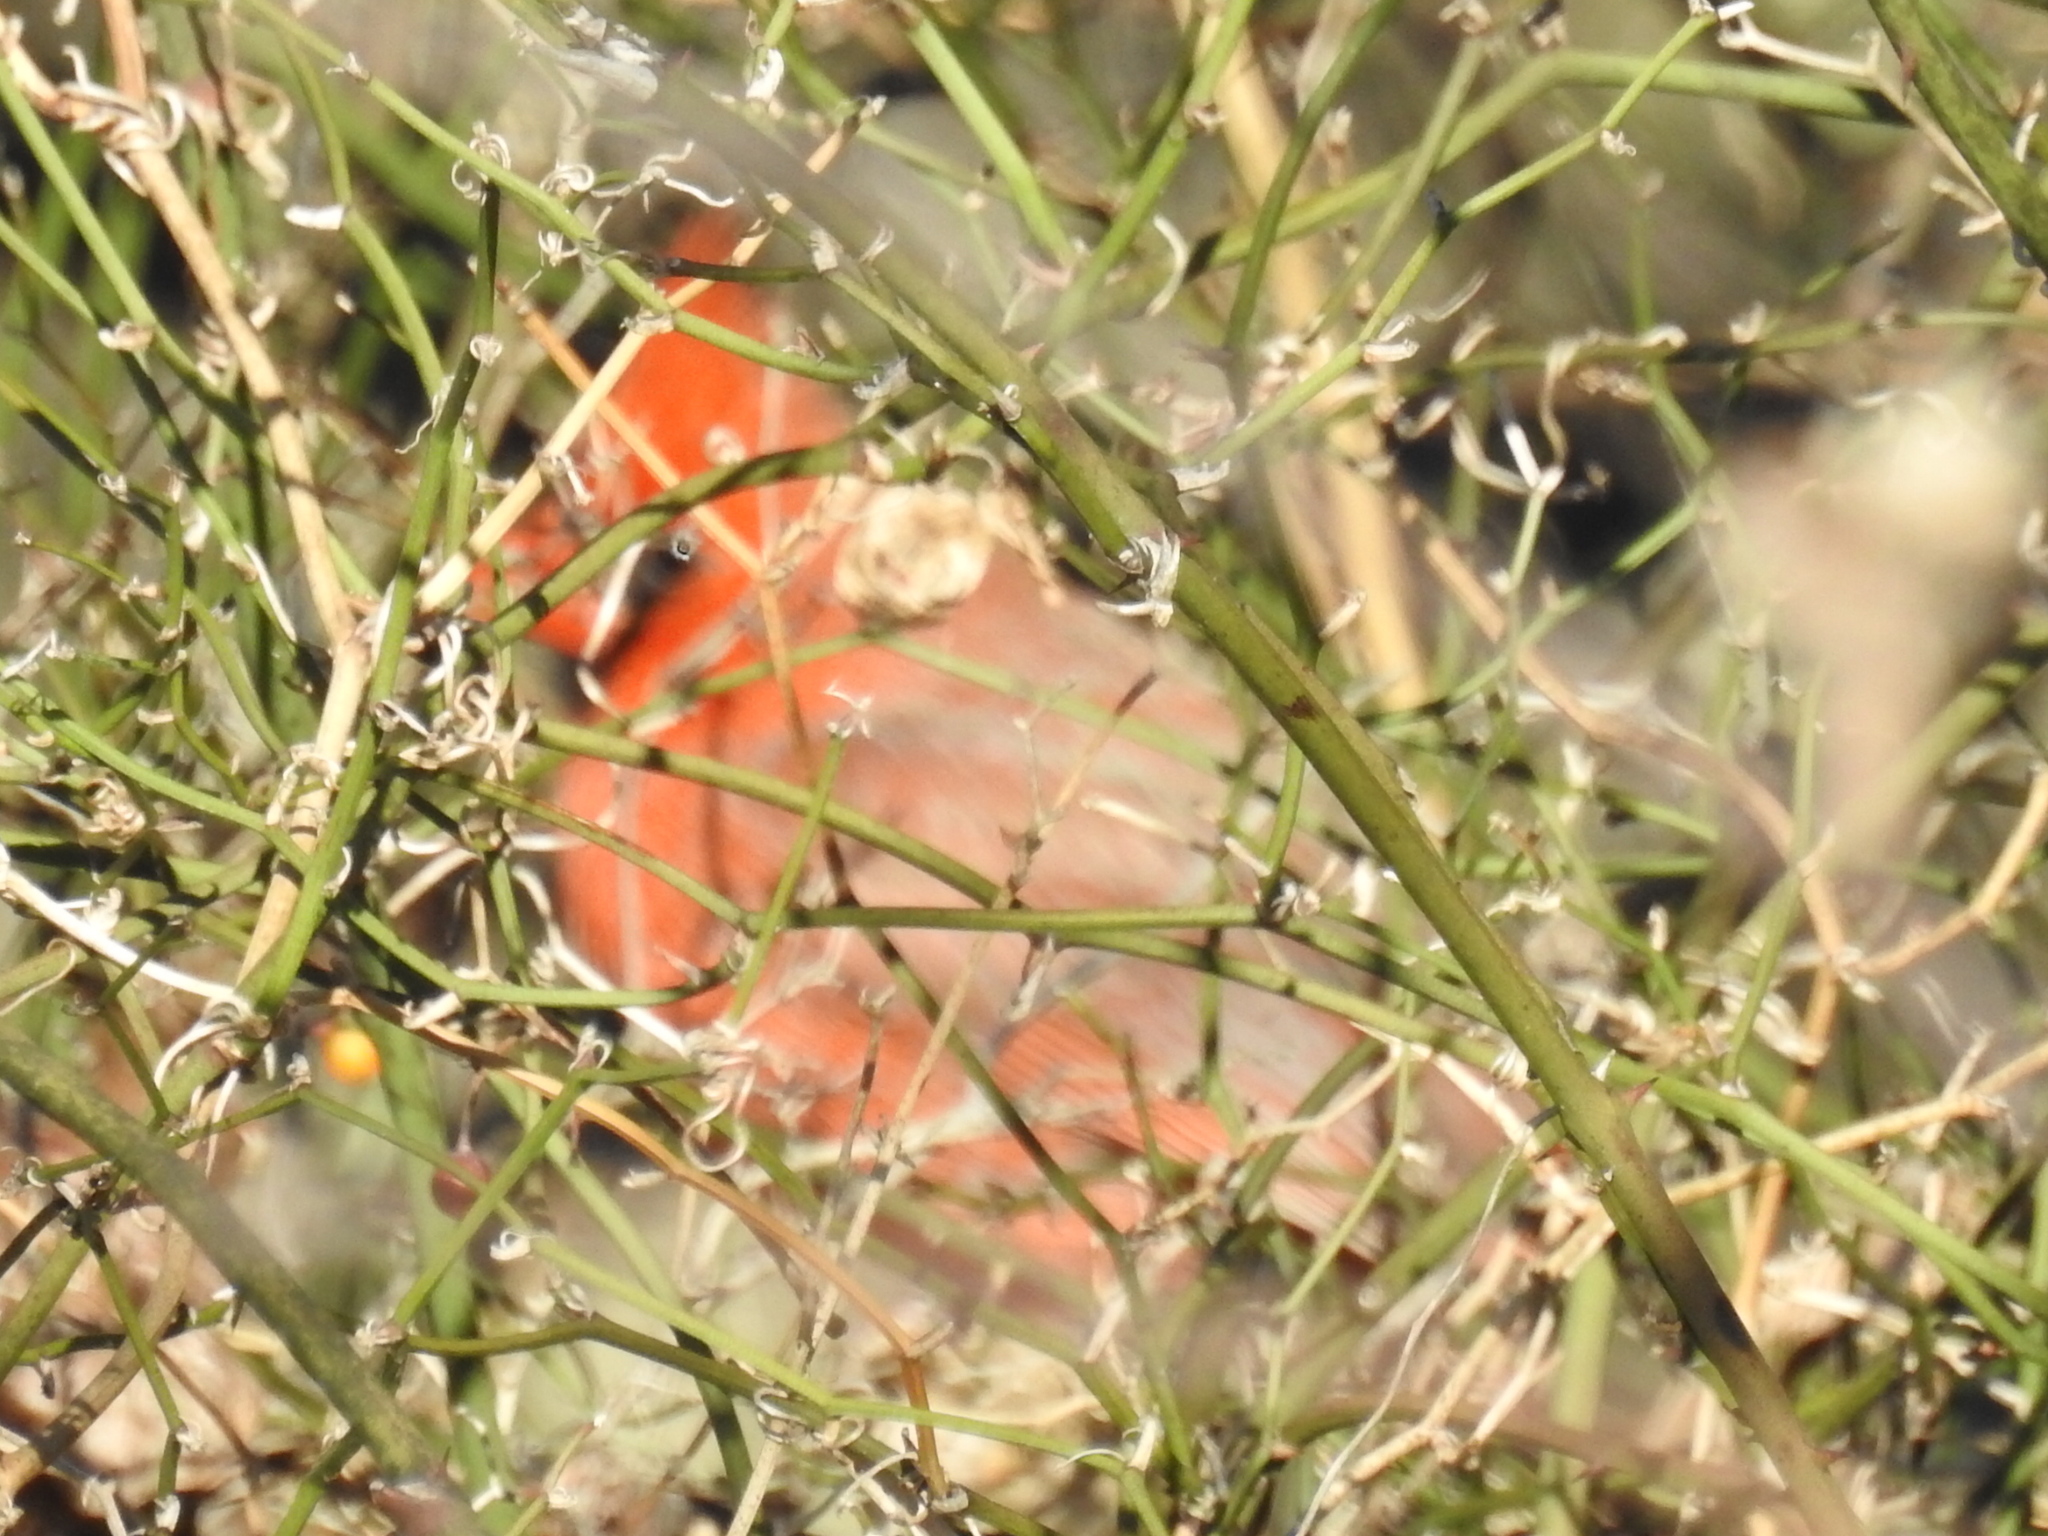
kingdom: Animalia
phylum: Chordata
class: Aves
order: Passeriformes
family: Cardinalidae
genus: Cardinalis
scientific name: Cardinalis cardinalis
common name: Northern cardinal
